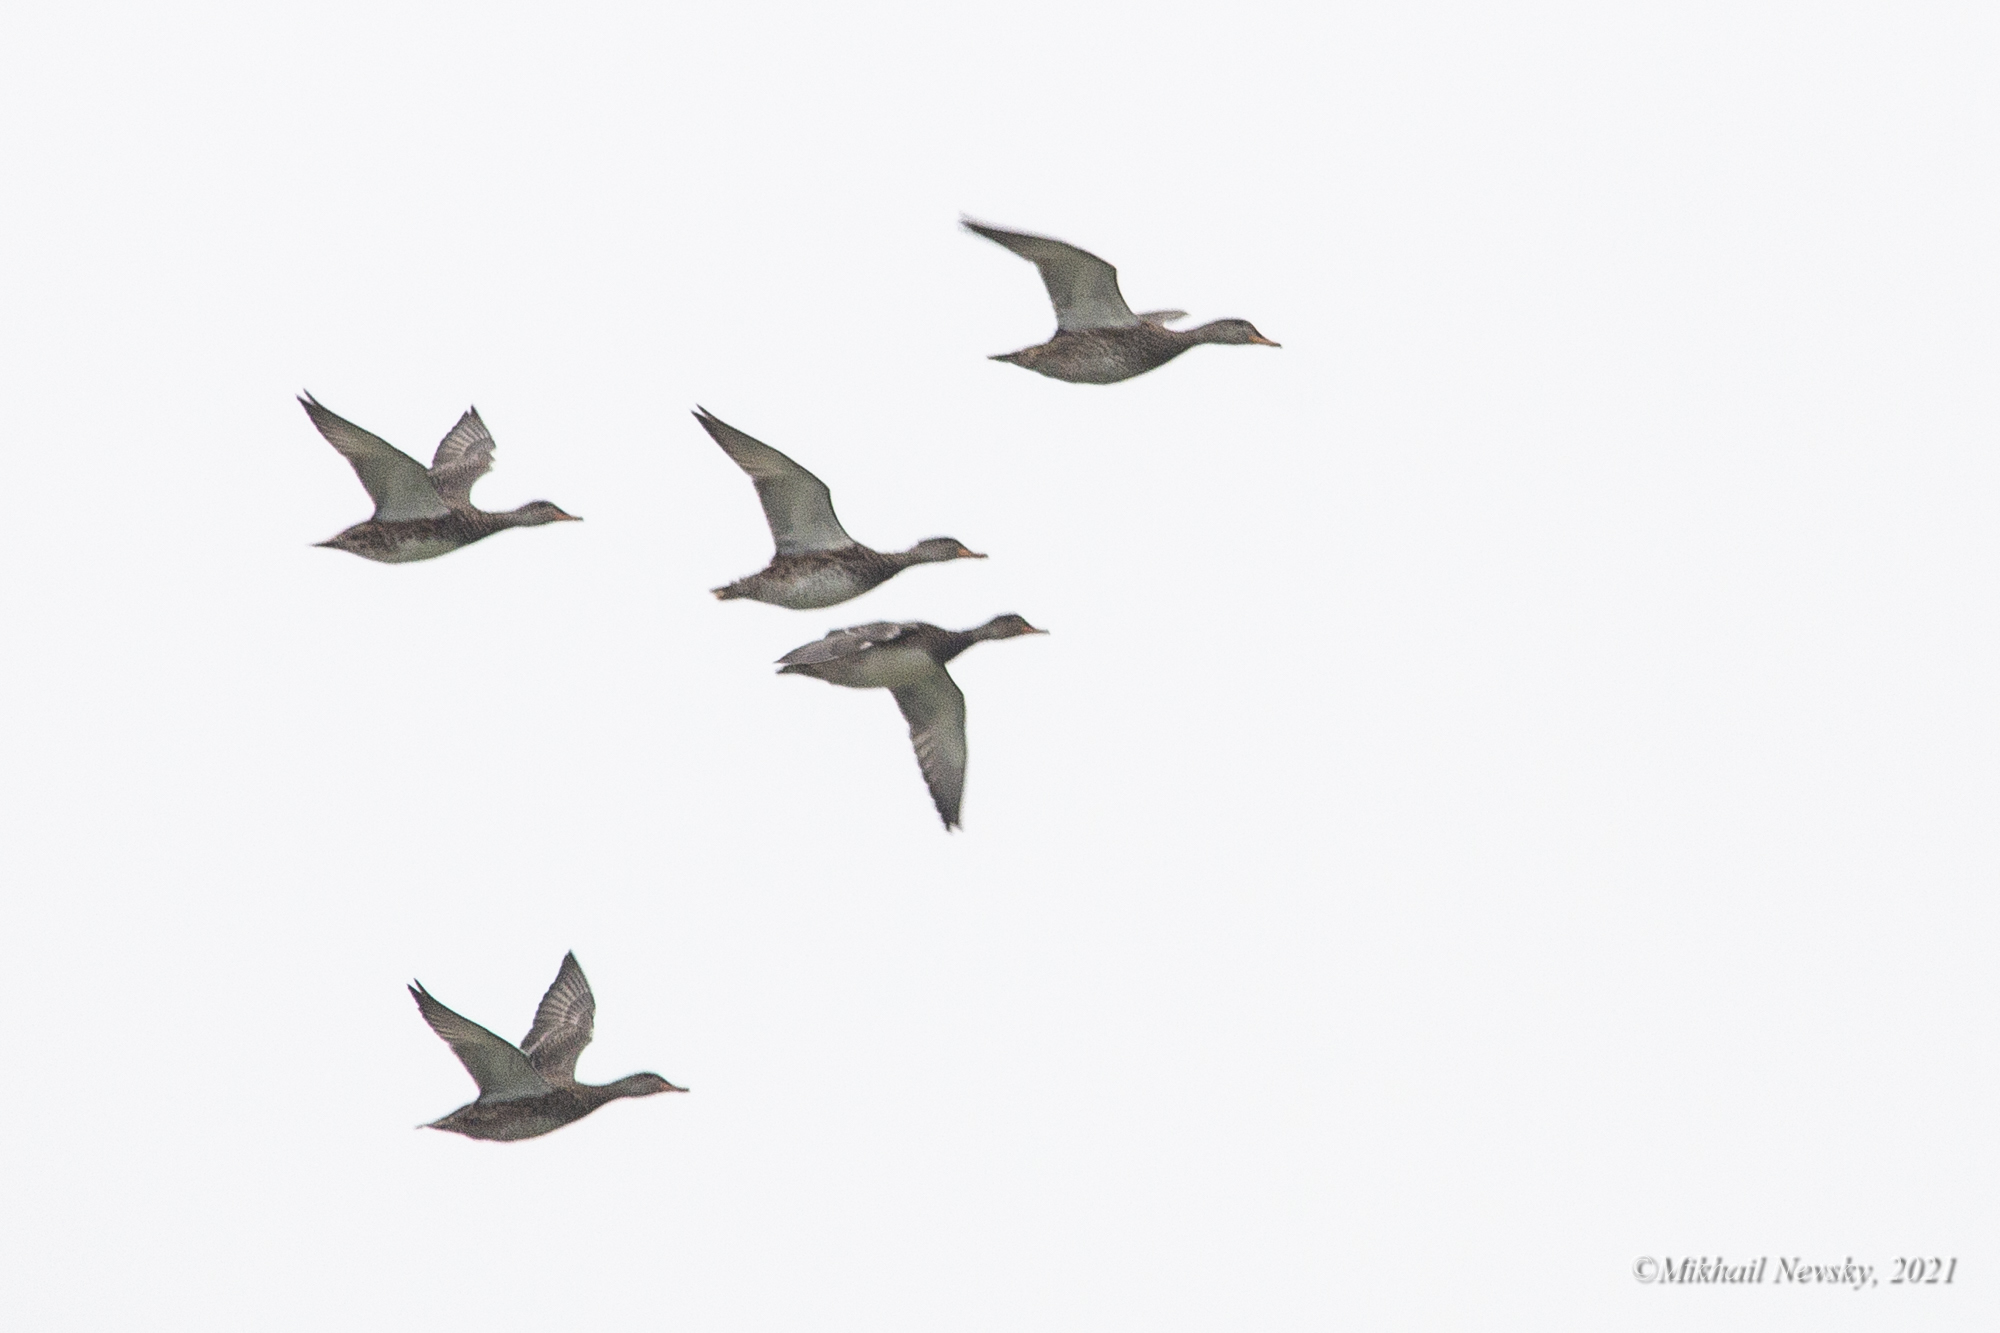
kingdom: Animalia
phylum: Chordata
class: Aves
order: Anseriformes
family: Anatidae
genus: Mareca
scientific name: Mareca strepera
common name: Gadwall
